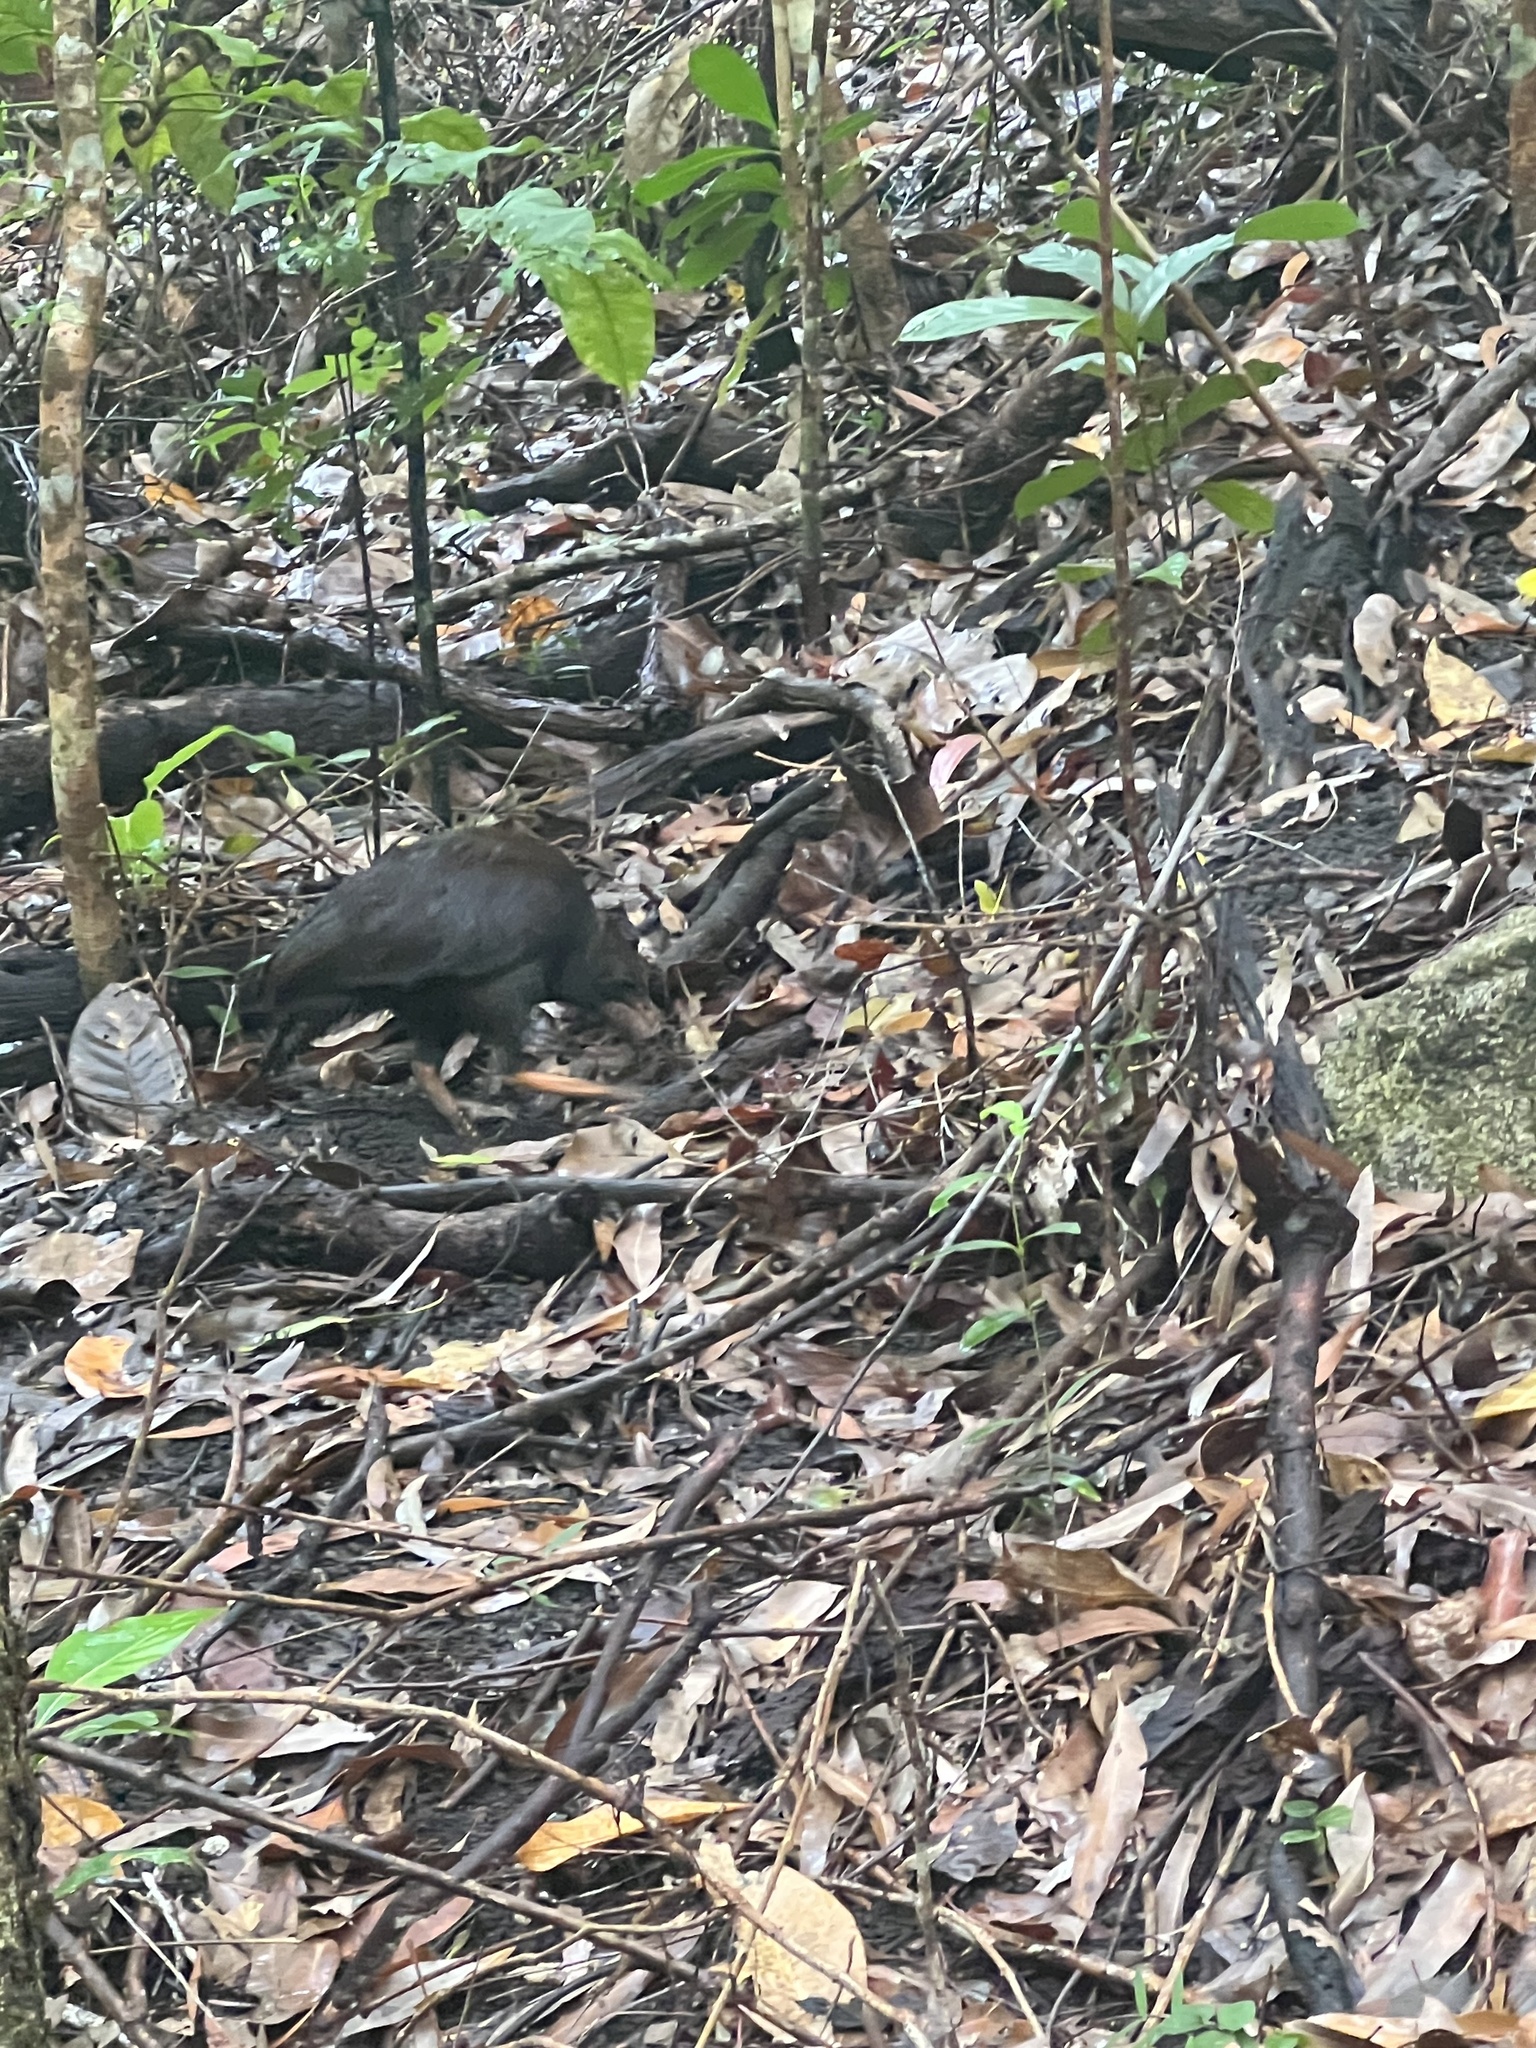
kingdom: Animalia
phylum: Chordata
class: Aves
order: Galliformes
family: Megapodiidae
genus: Megapodius
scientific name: Megapodius reinwardt
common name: Orange-footed scrubfowl
